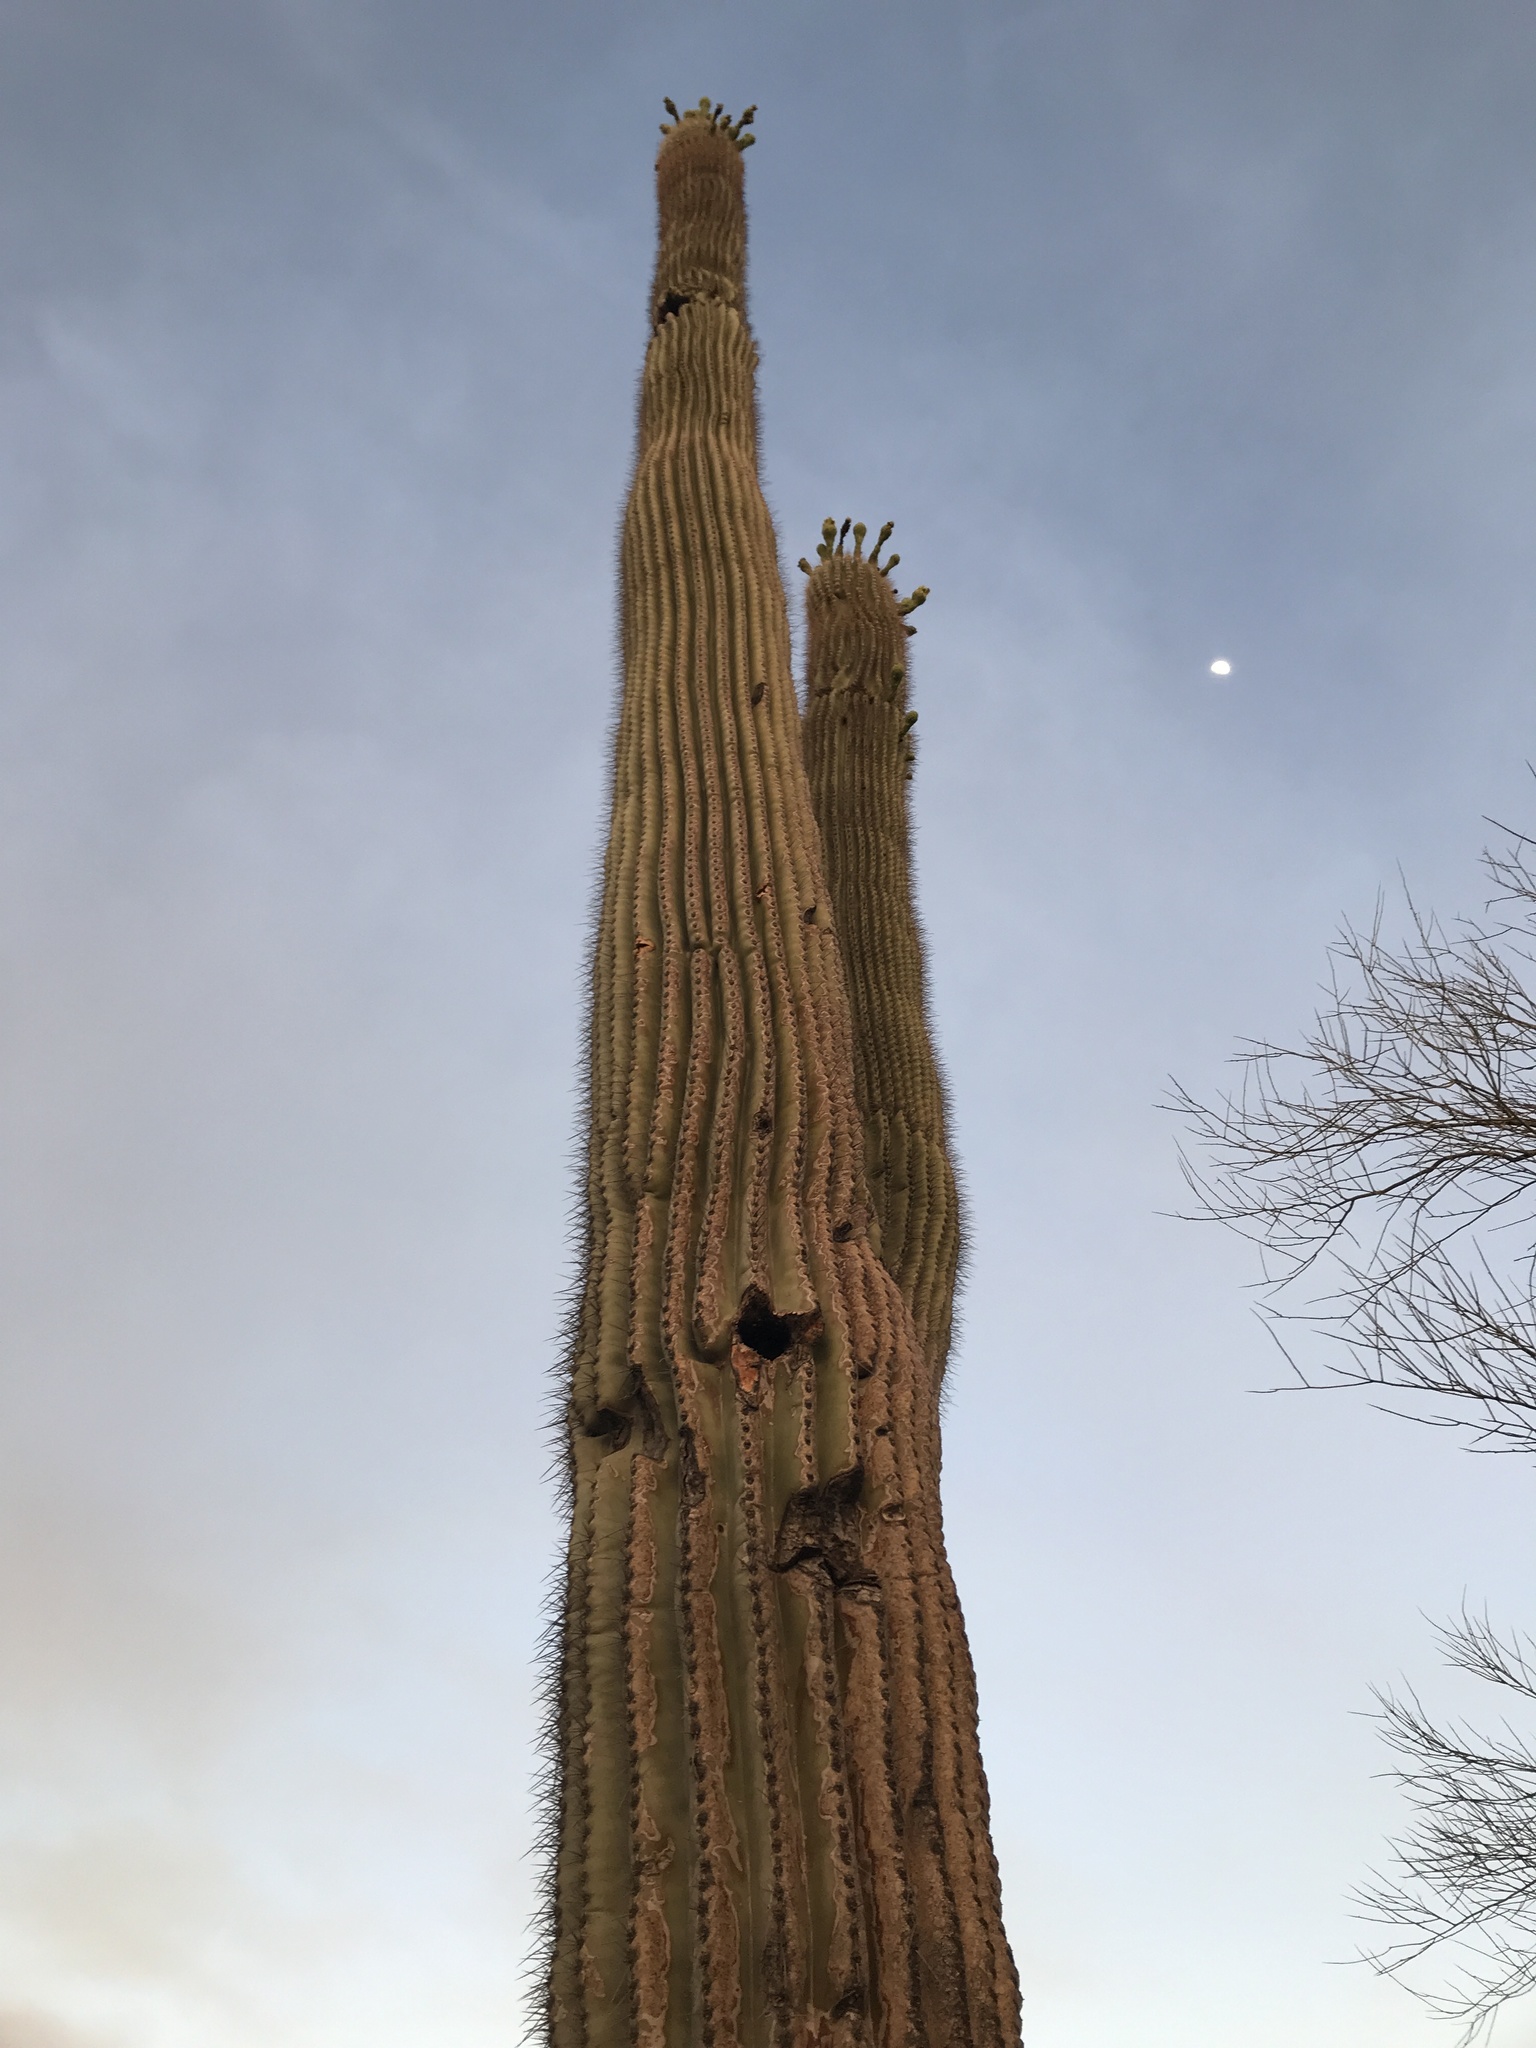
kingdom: Plantae
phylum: Tracheophyta
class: Magnoliopsida
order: Caryophyllales
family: Cactaceae
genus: Carnegiea
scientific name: Carnegiea gigantea
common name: Saguaro
